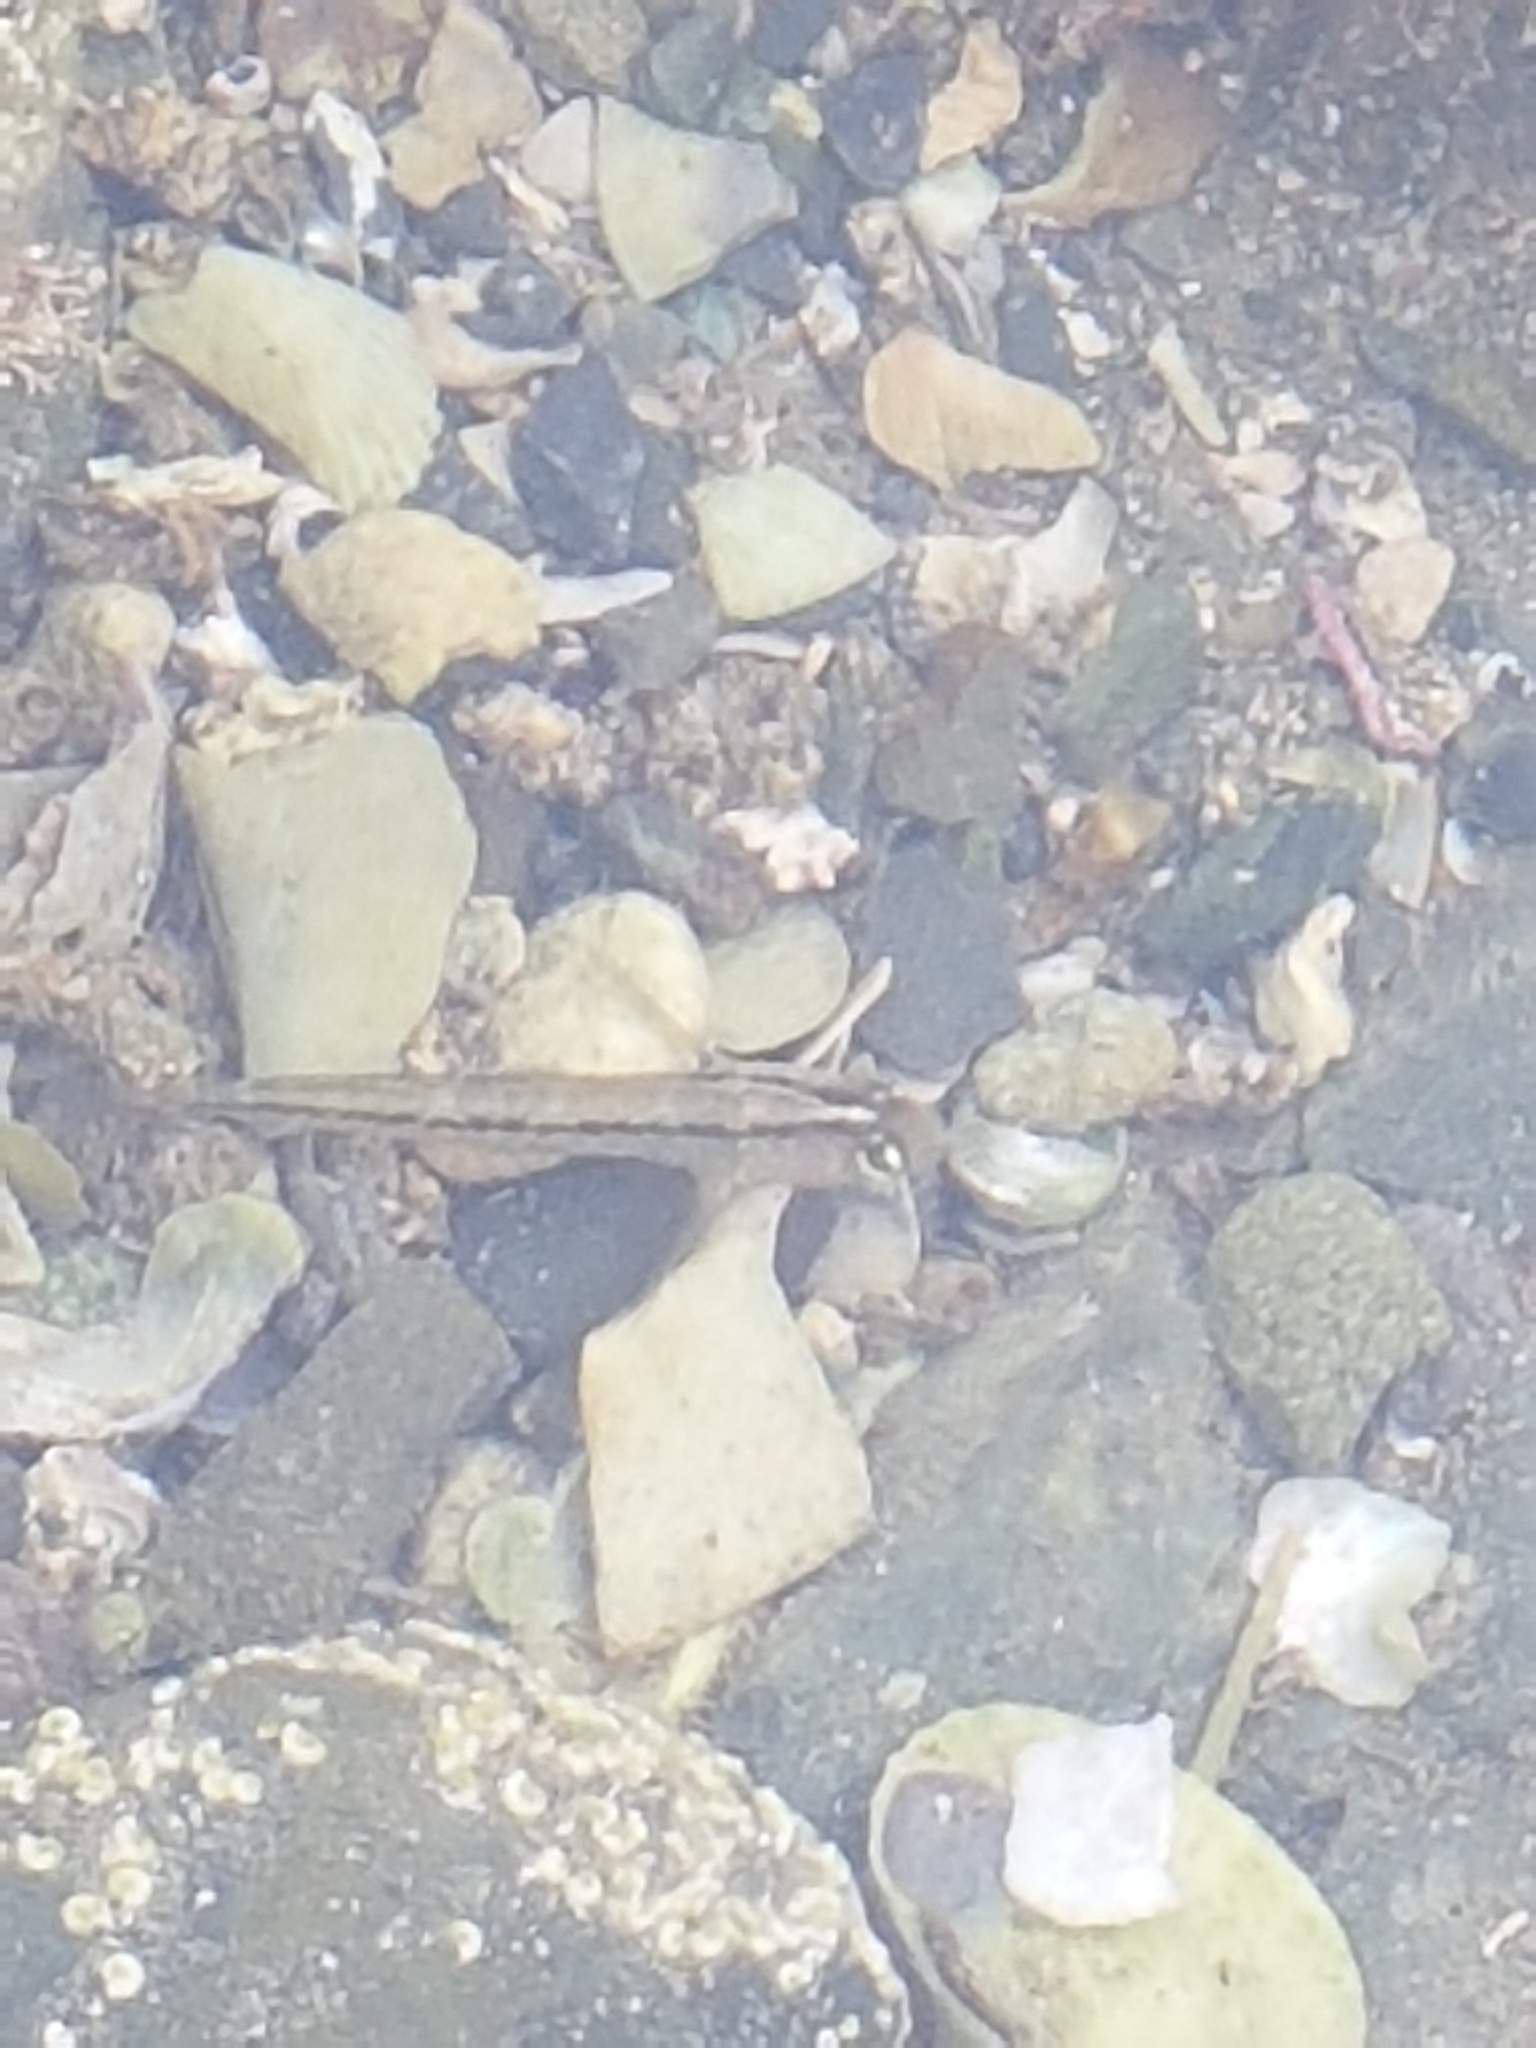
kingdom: Animalia
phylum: Chordata
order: Perciformes
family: Tripterygiidae
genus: Forsterygion
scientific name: Forsterygion lapillum
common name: Common triplefin
